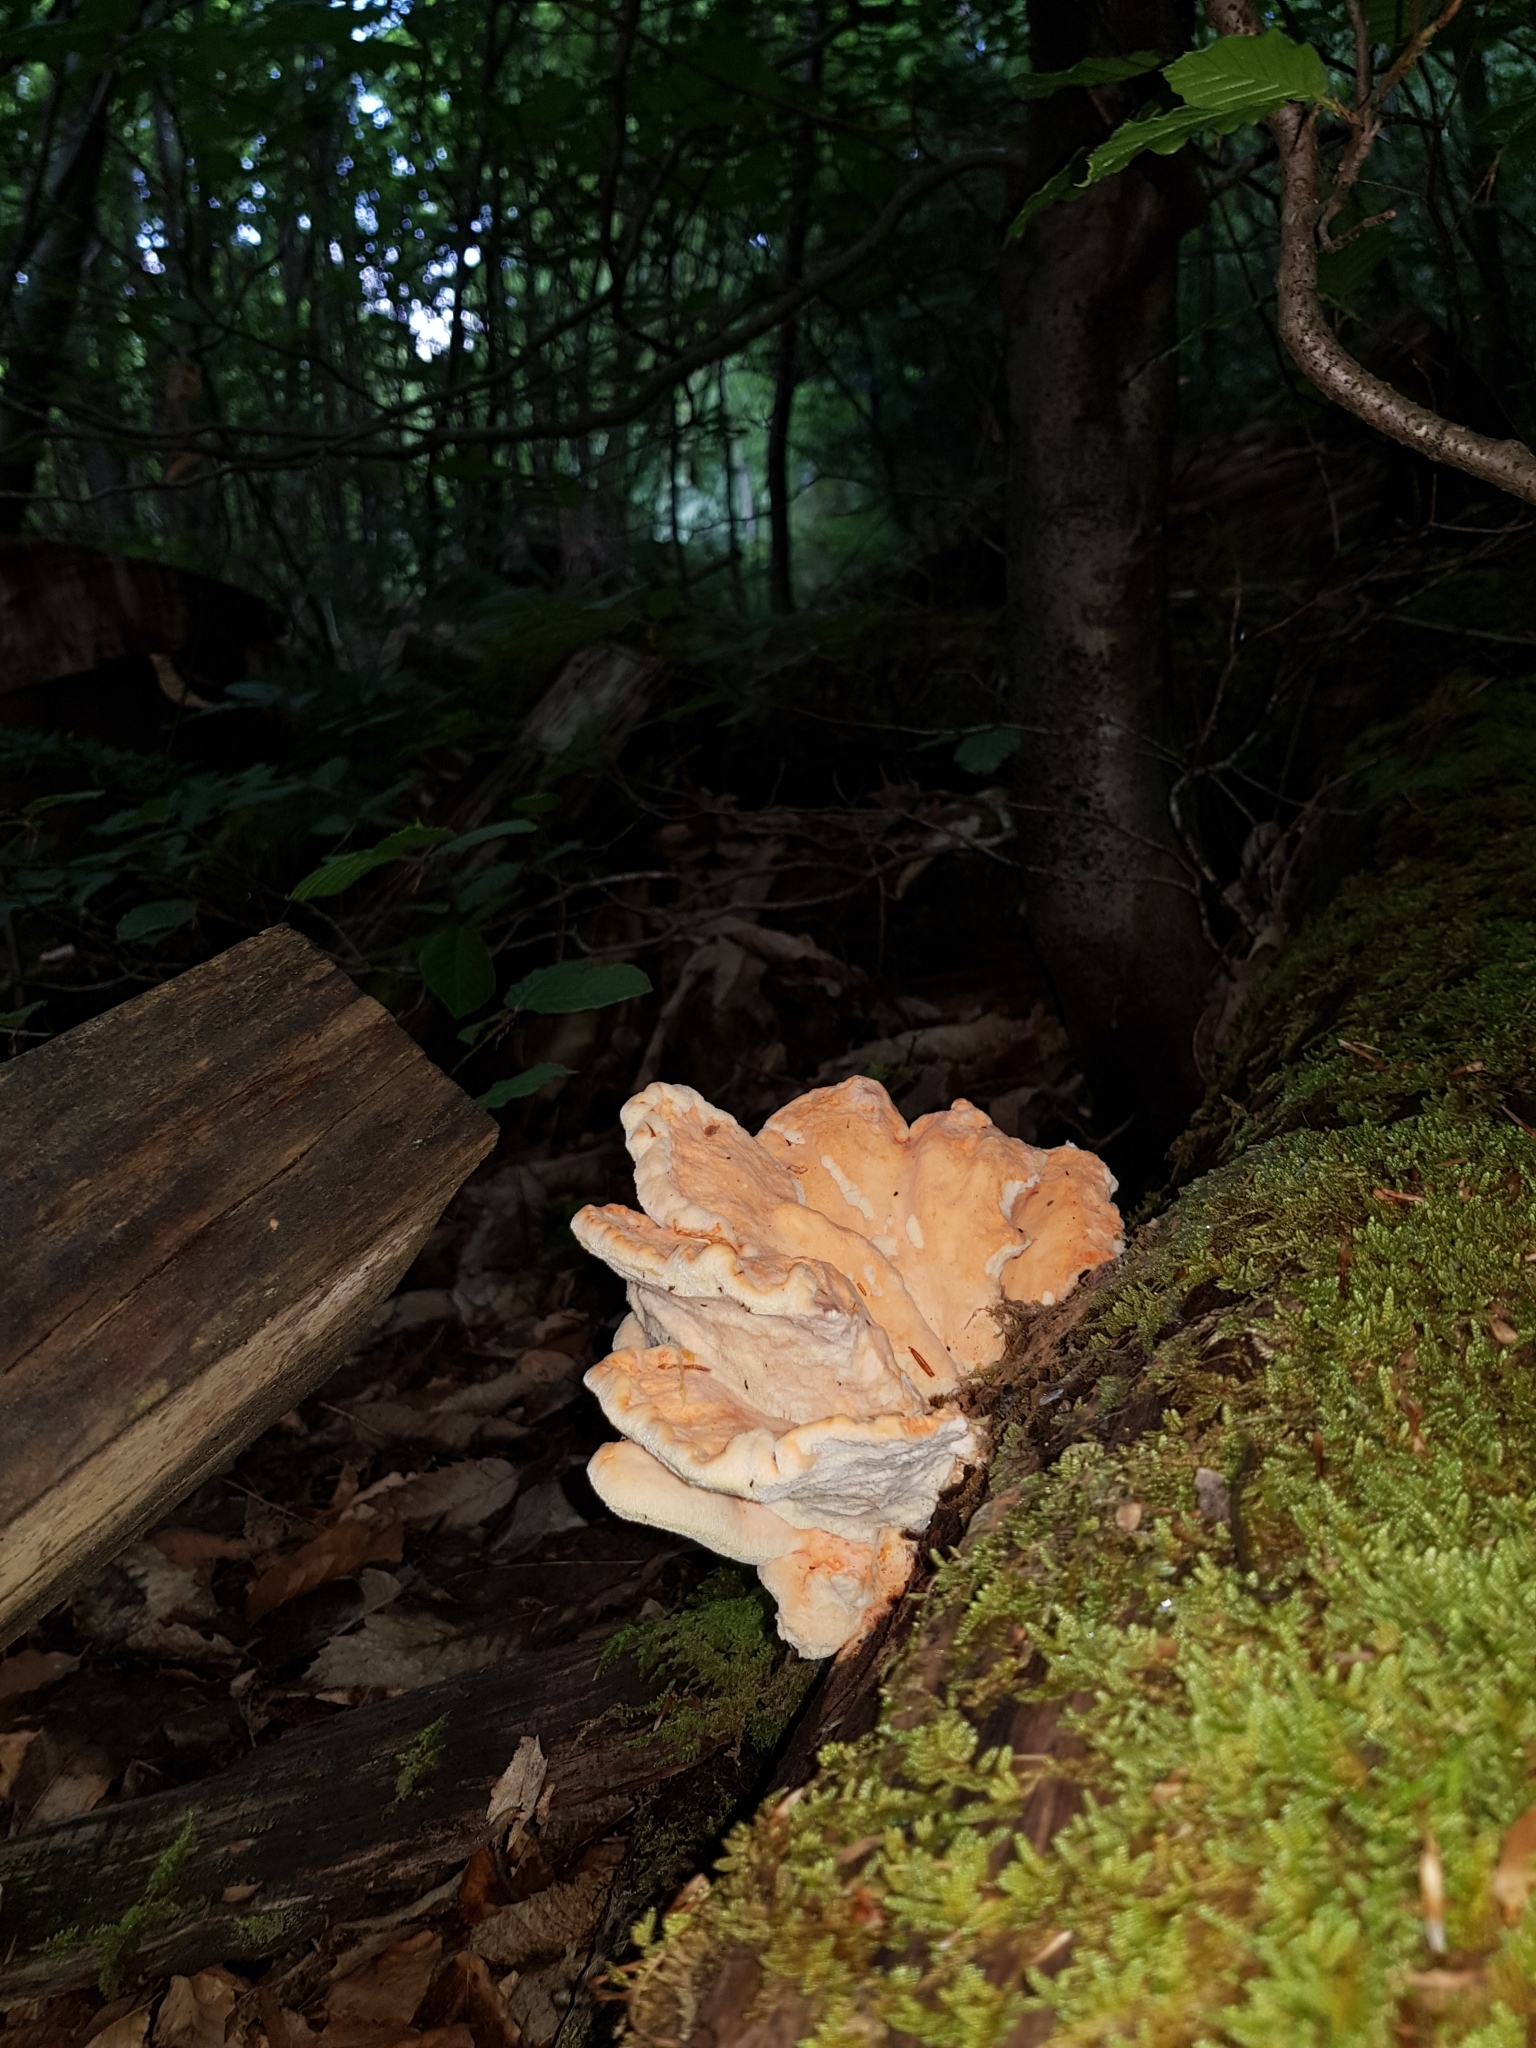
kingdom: Fungi
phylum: Basidiomycota
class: Agaricomycetes
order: Polyporales
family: Laetiporaceae
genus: Laetiporus
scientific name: Laetiporus sulphureus
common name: Chicken of the woods
